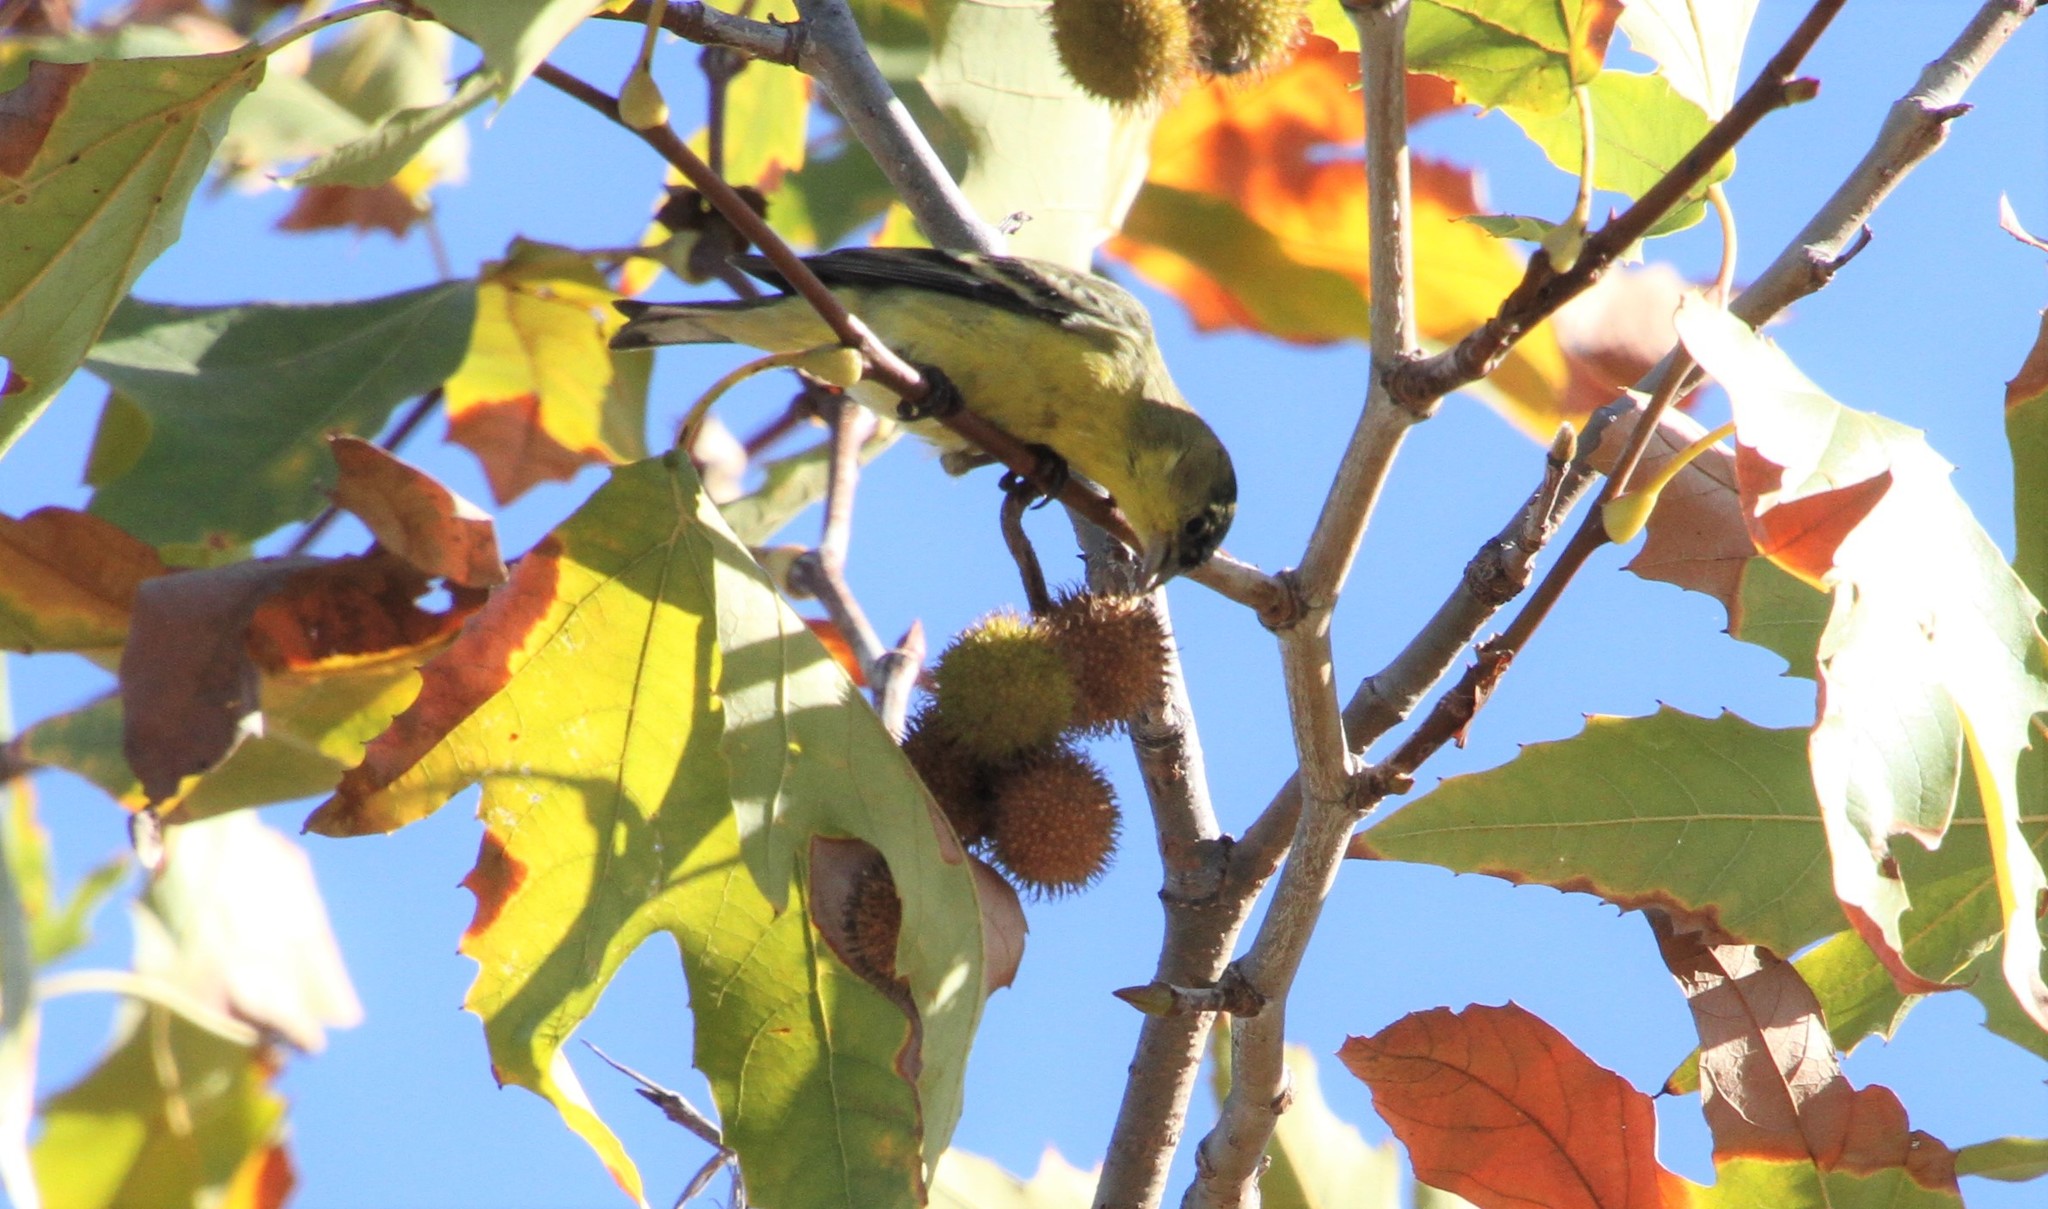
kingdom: Animalia
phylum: Chordata
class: Aves
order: Passeriformes
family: Fringillidae
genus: Spinus
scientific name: Spinus psaltria
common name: Lesser goldfinch
